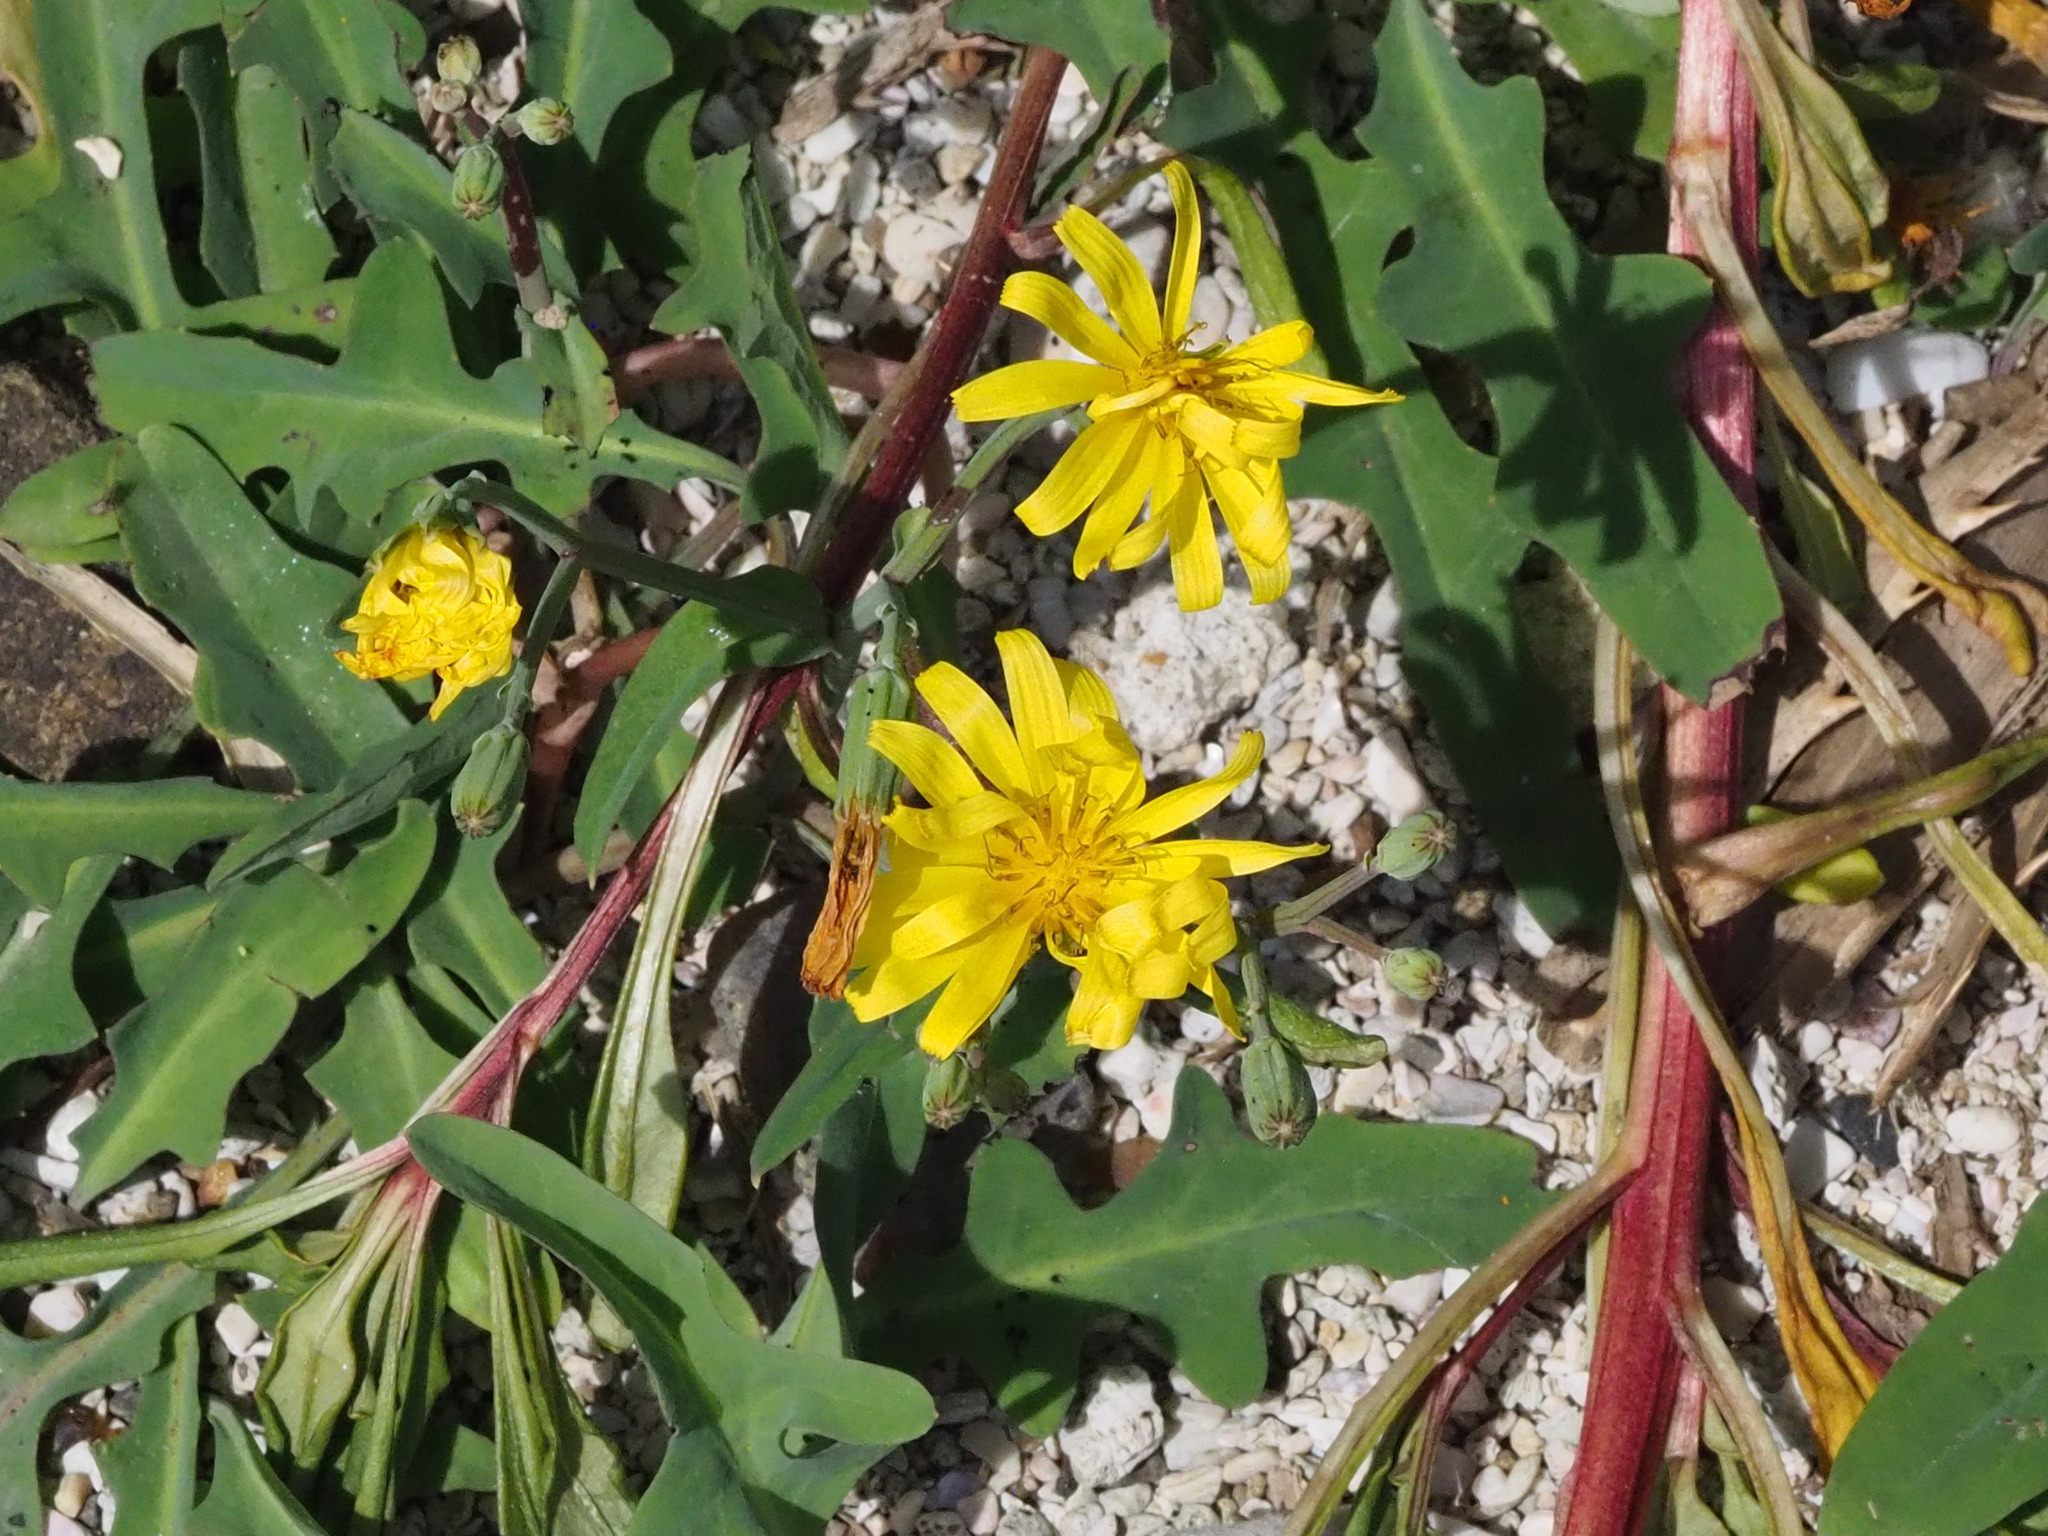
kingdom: Plantae
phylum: Tracheophyta
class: Magnoliopsida
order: Asterales
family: Asteraceae
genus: Ixeris
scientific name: Ixeris japonica
